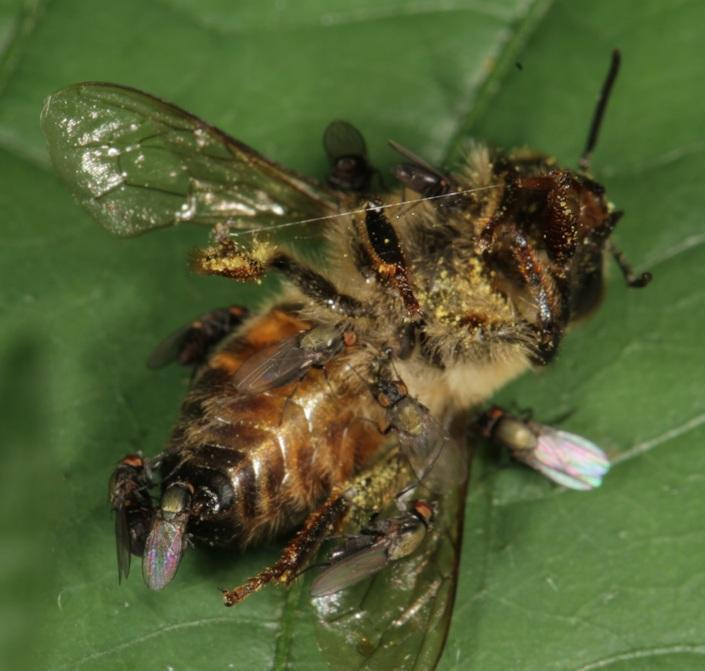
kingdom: Animalia
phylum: Arthropoda
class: Insecta
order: Hymenoptera
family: Apidae
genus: Apis
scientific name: Apis mellifera
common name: Honey bee
